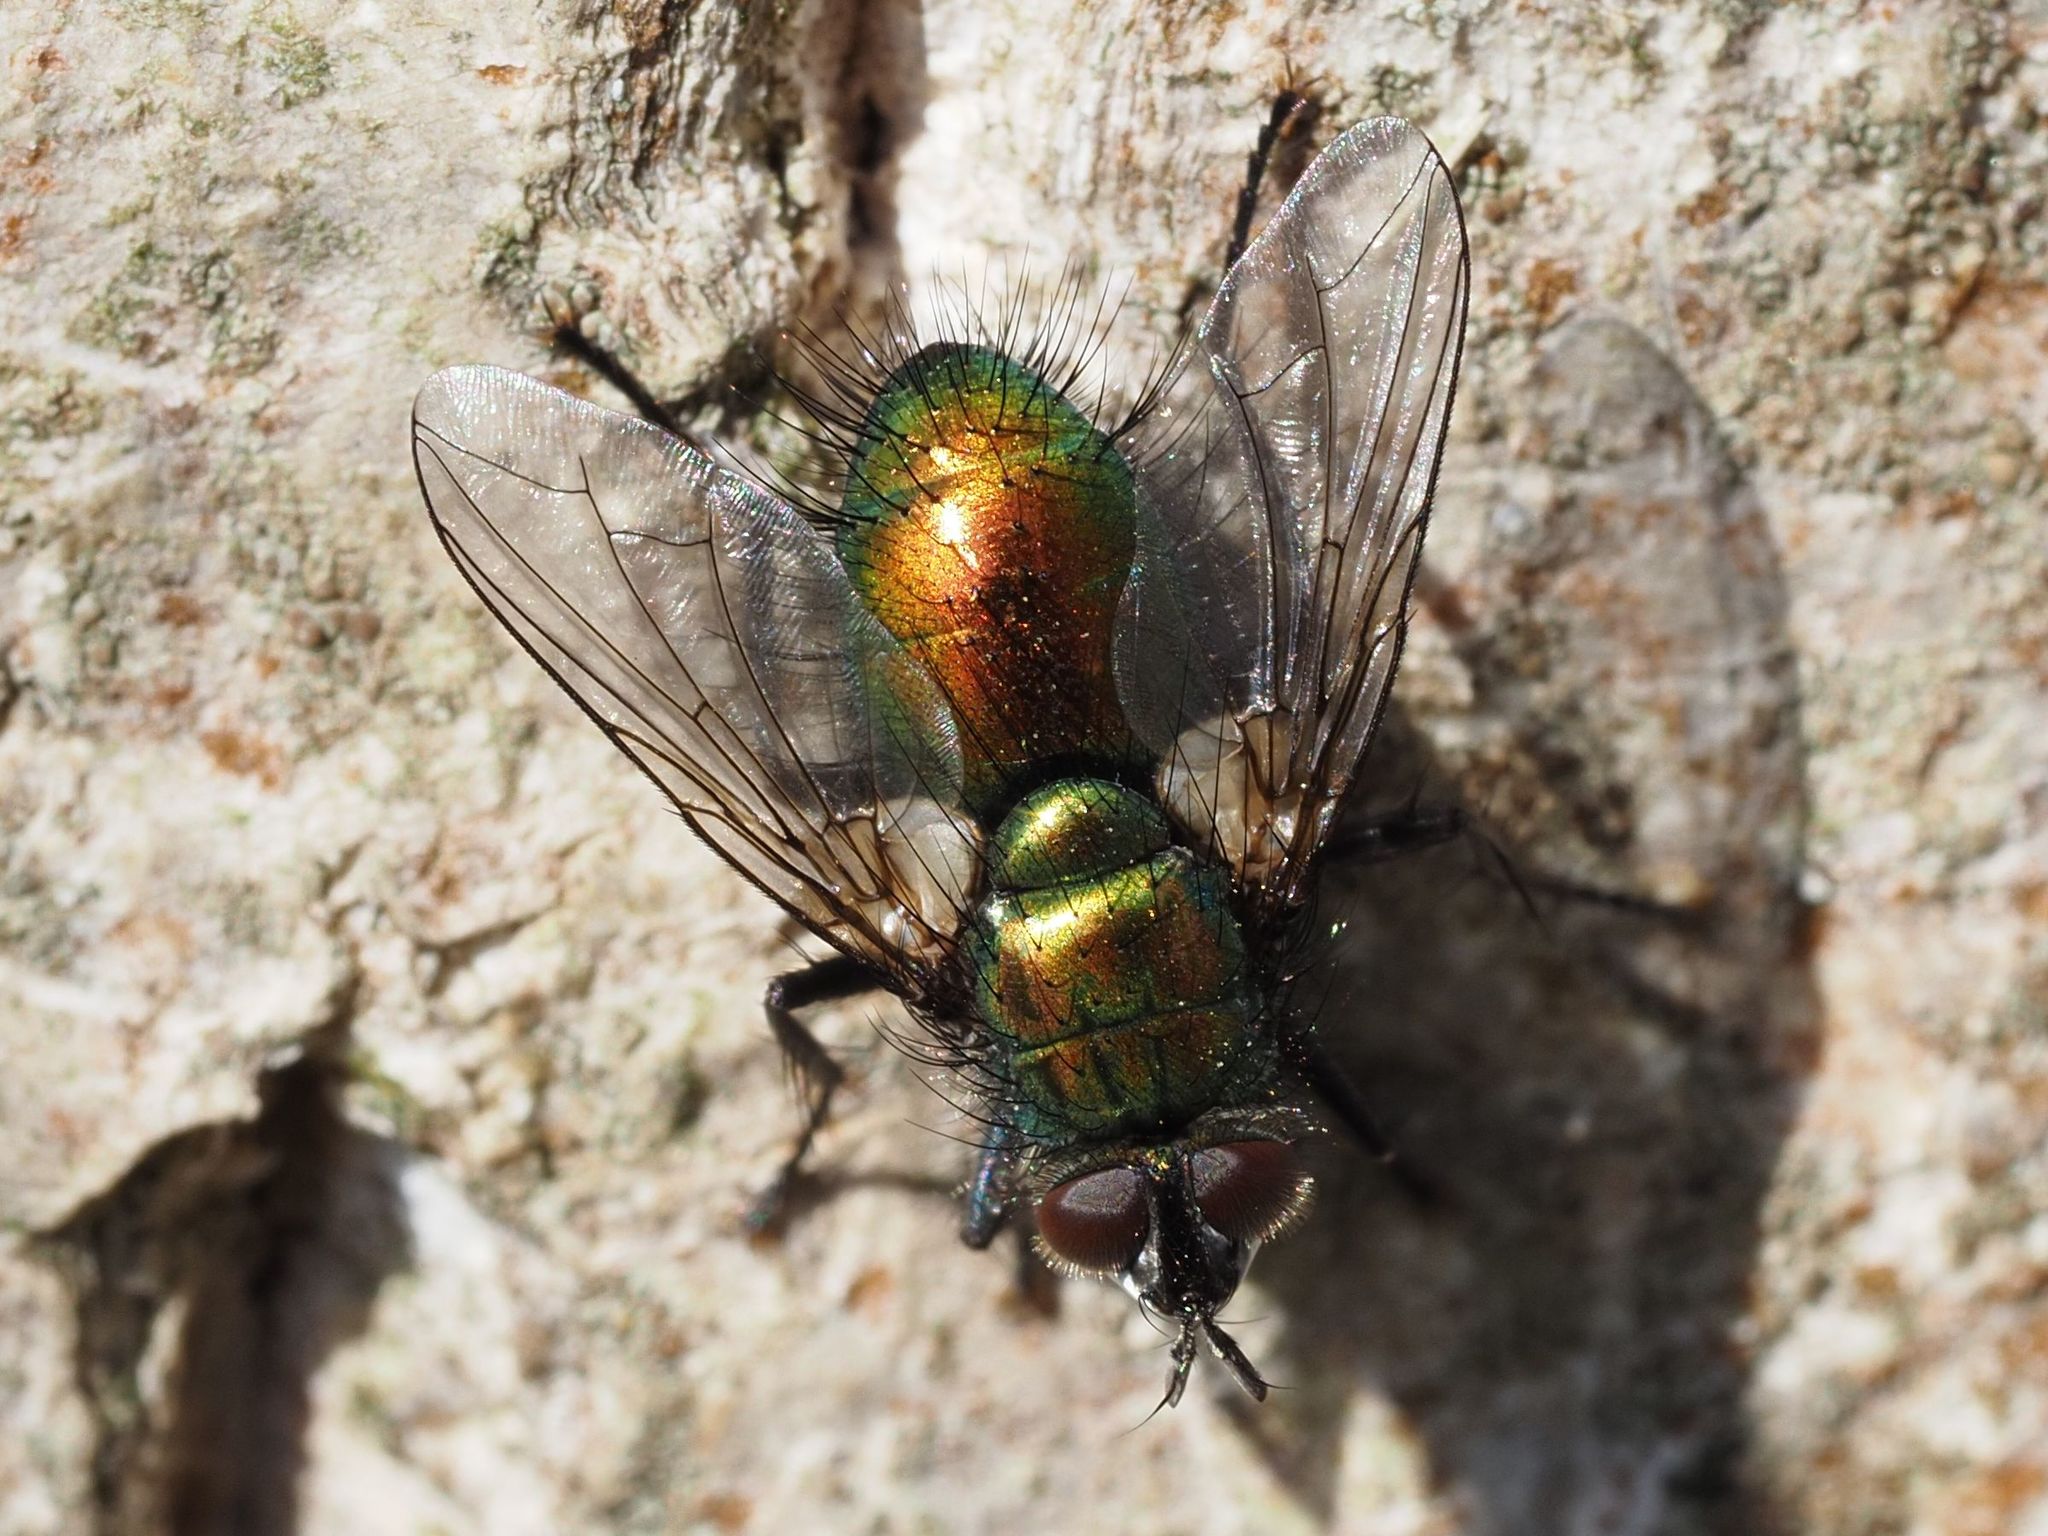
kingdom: Animalia
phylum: Arthropoda
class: Insecta
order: Diptera
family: Tachinidae
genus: Gymnocheta
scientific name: Gymnocheta viridis
